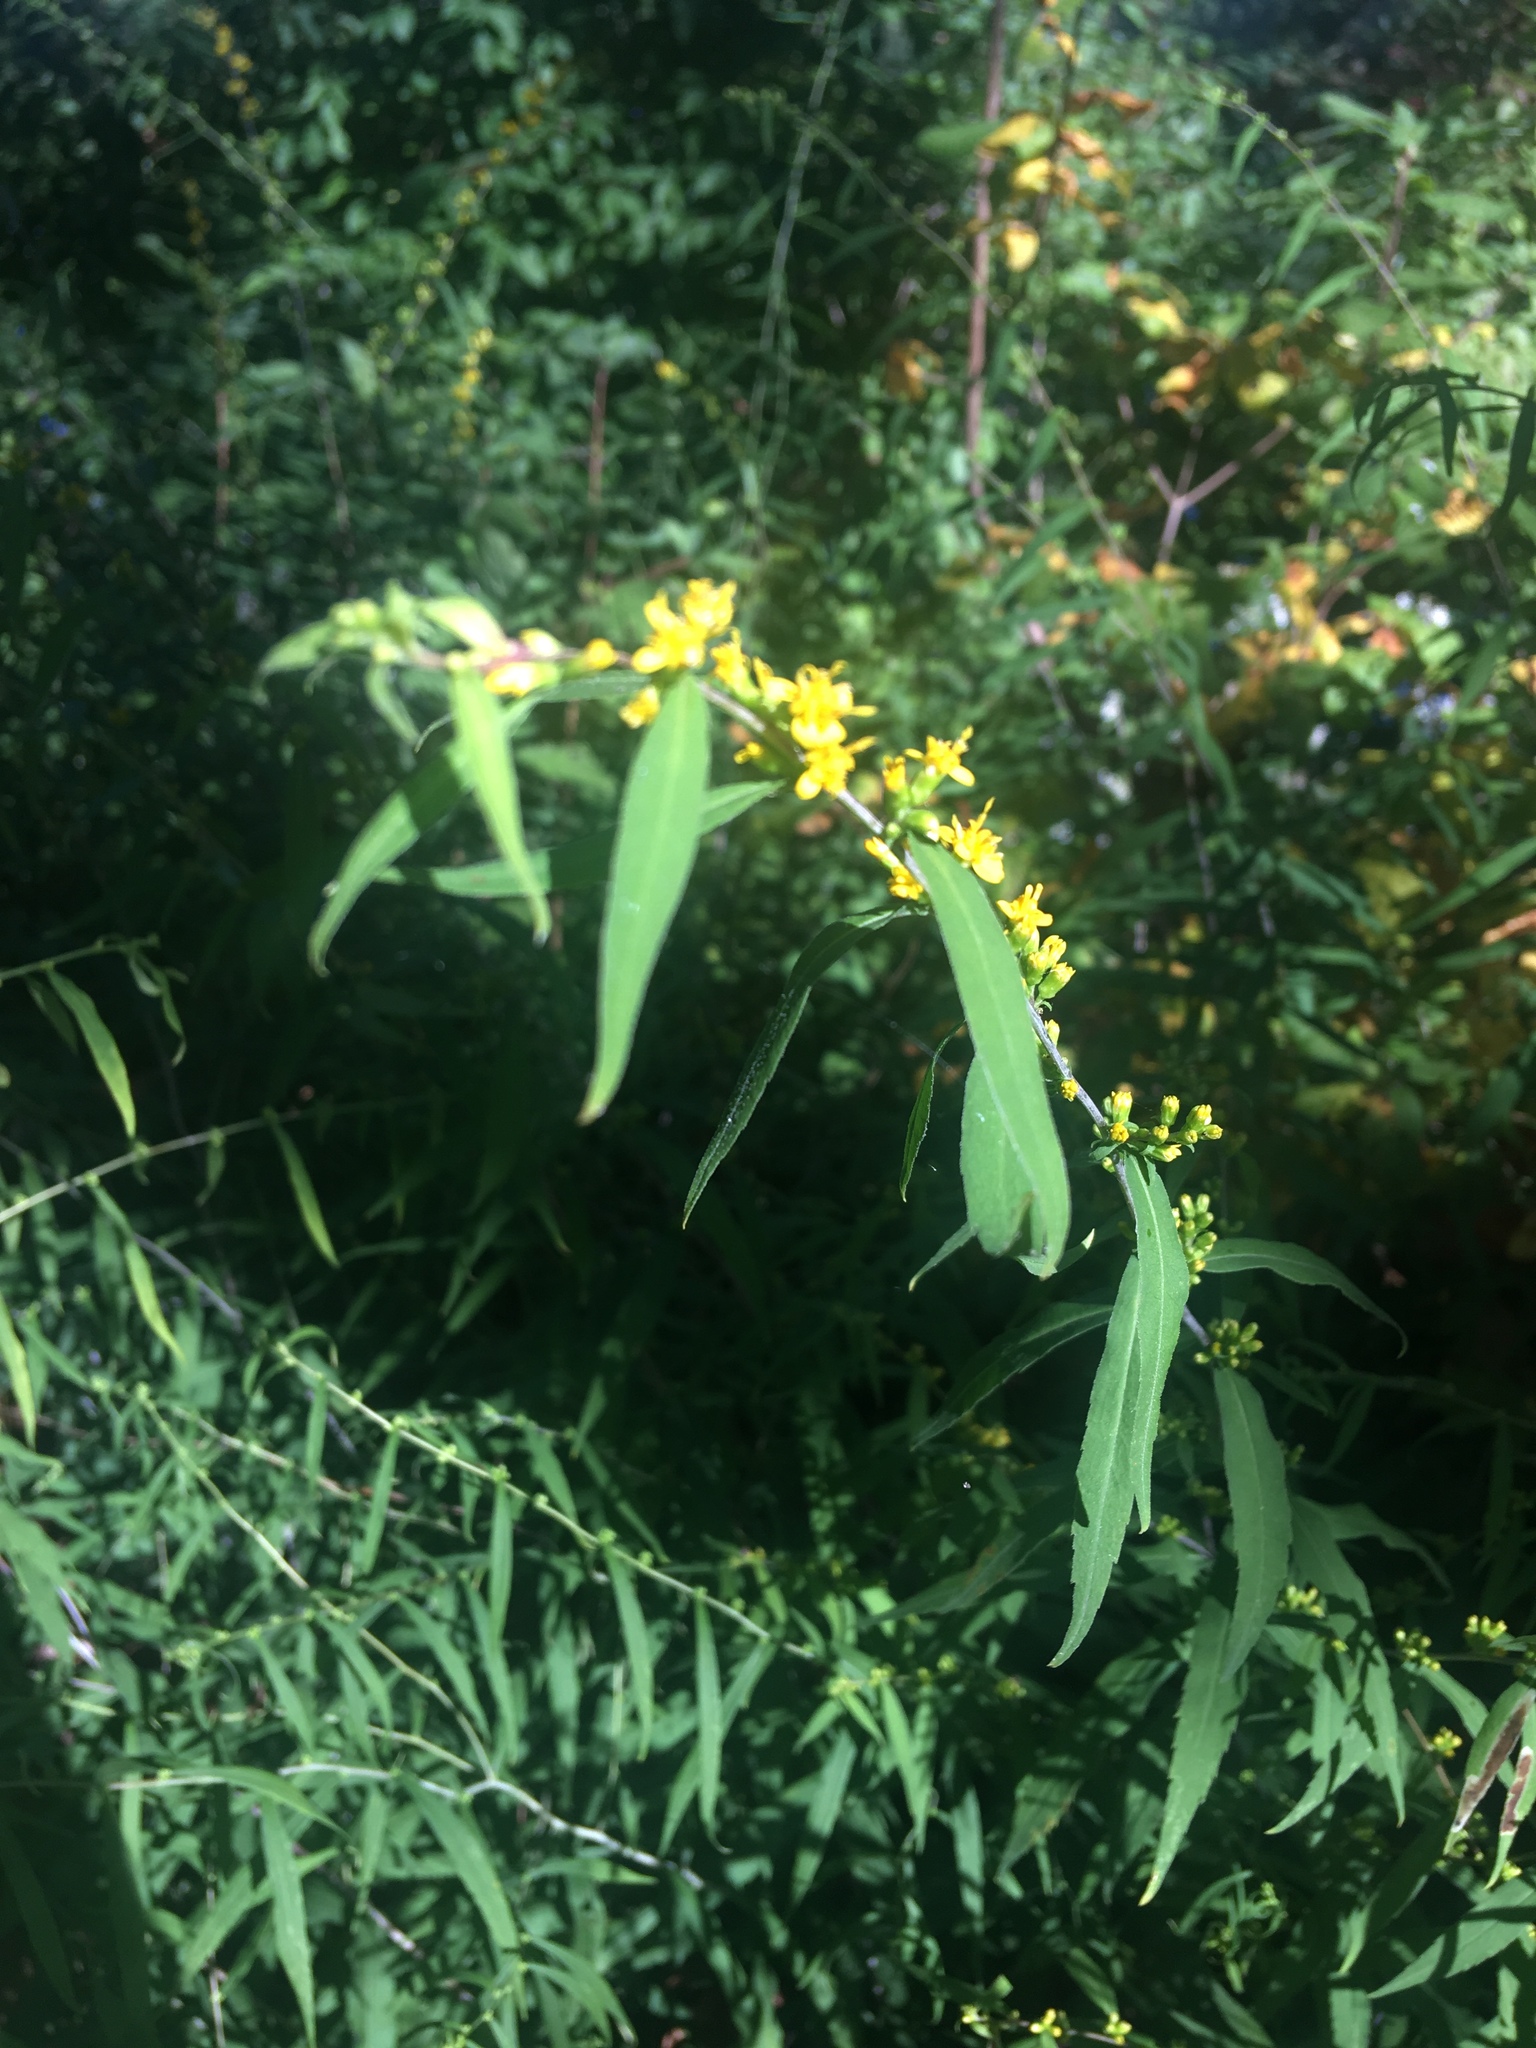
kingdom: Plantae
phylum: Tracheophyta
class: Magnoliopsida
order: Asterales
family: Asteraceae
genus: Solidago
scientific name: Solidago caesia
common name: Woodland goldenrod
